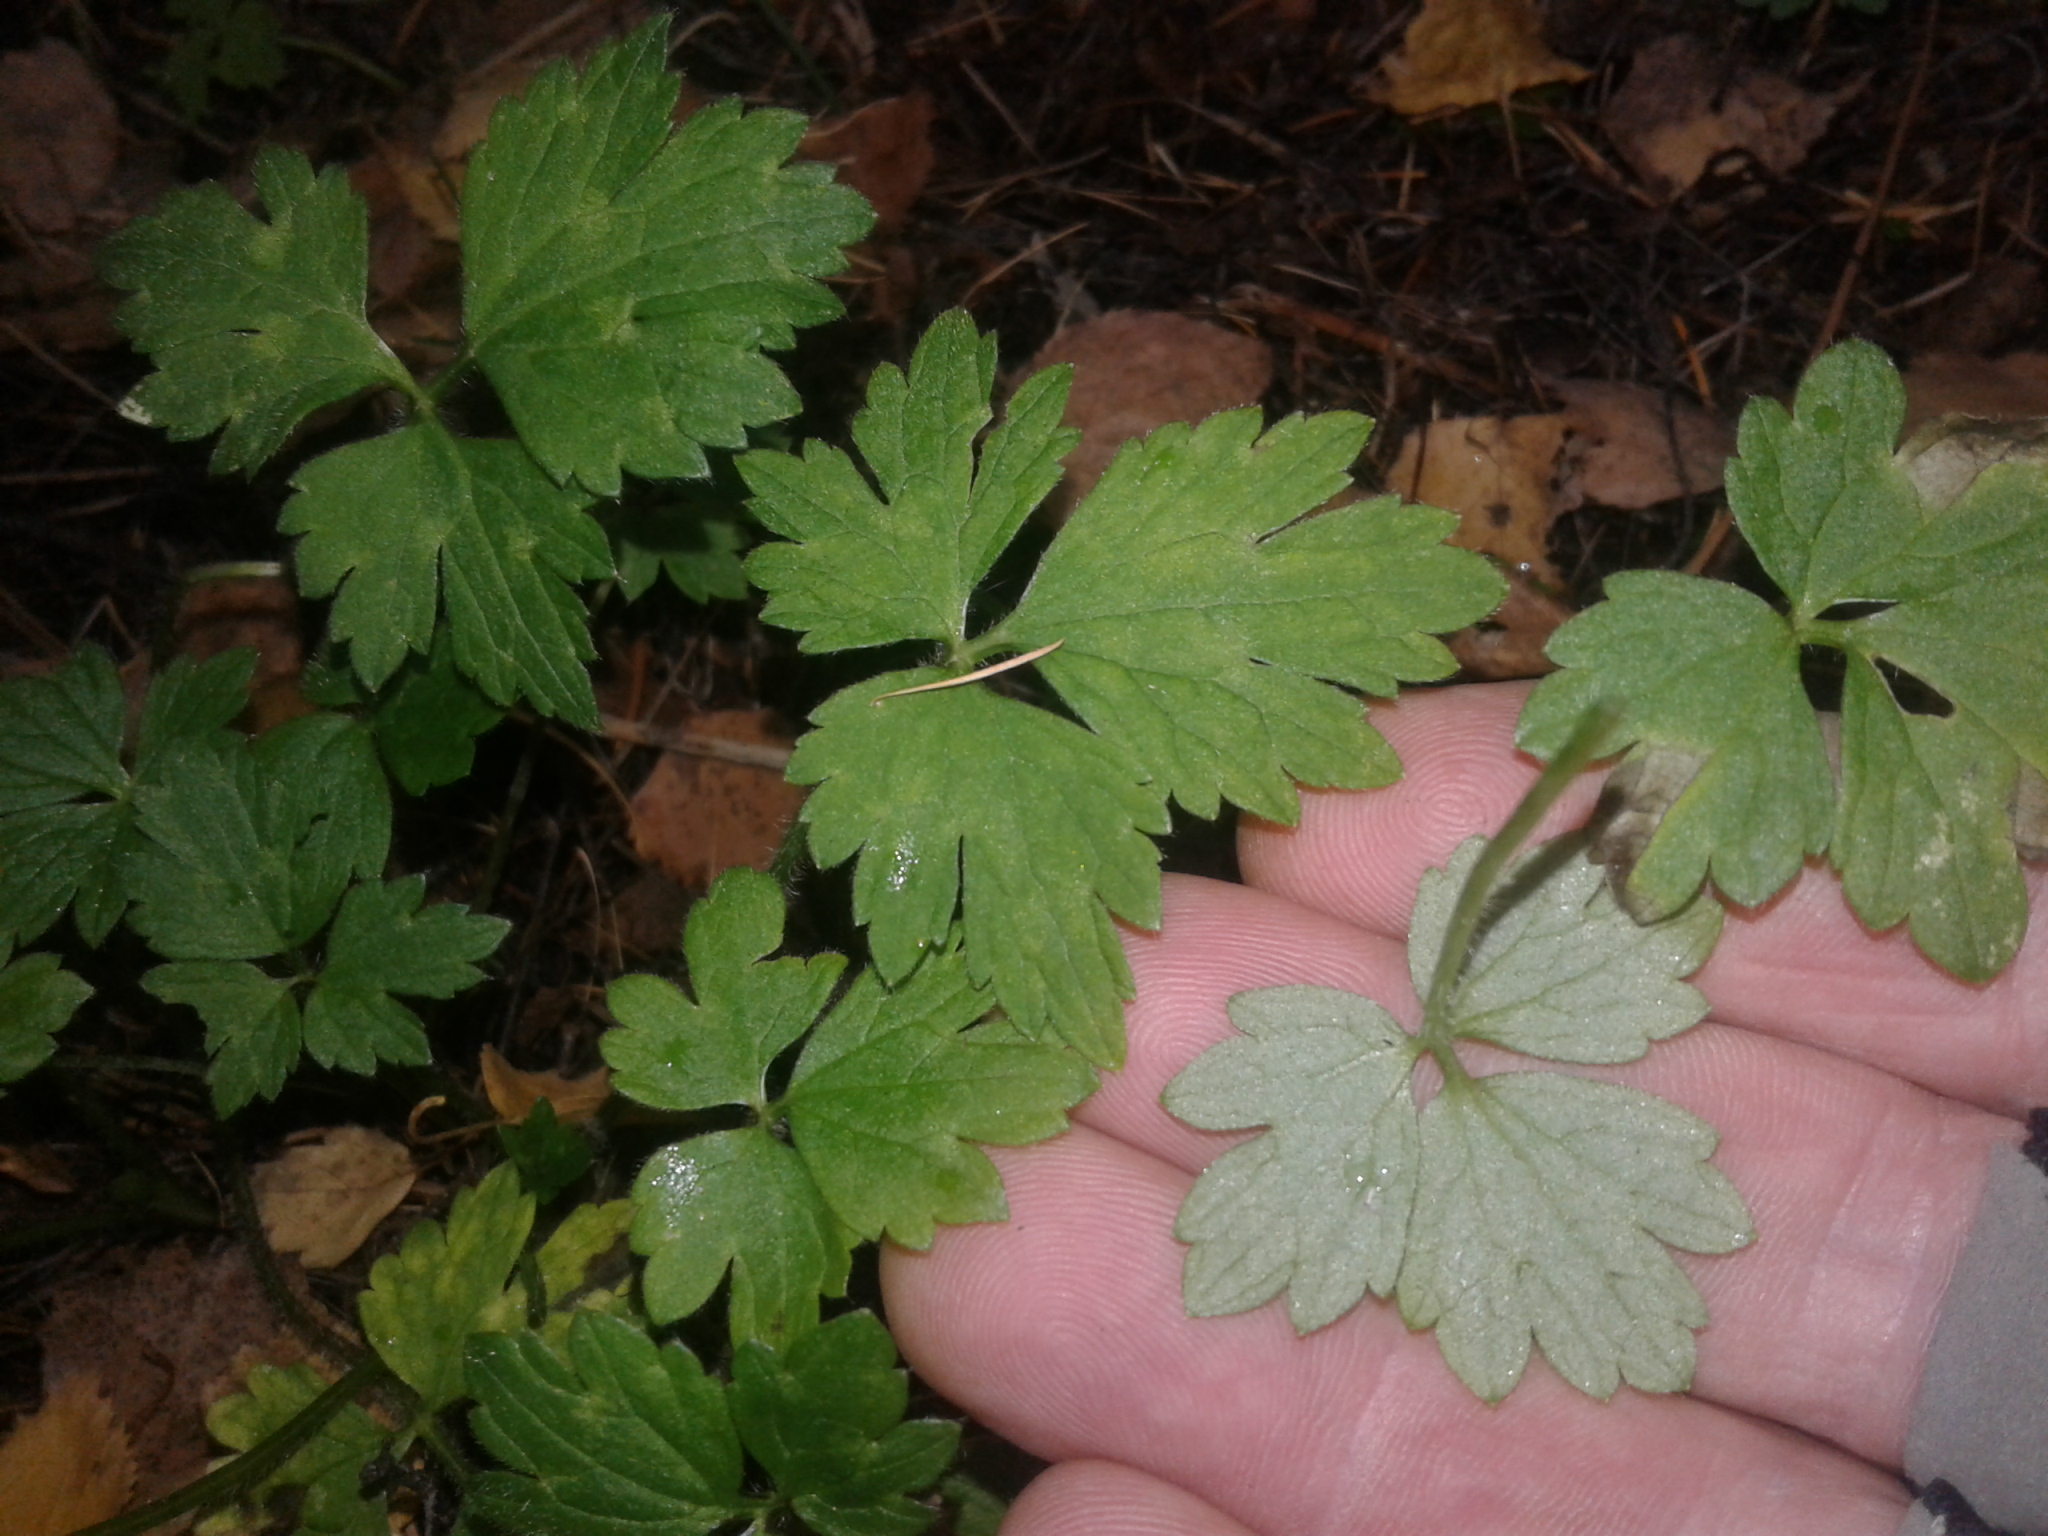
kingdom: Plantae
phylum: Tracheophyta
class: Magnoliopsida
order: Ranunculales
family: Ranunculaceae
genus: Ranunculus
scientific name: Ranunculus repens
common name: Creeping buttercup
